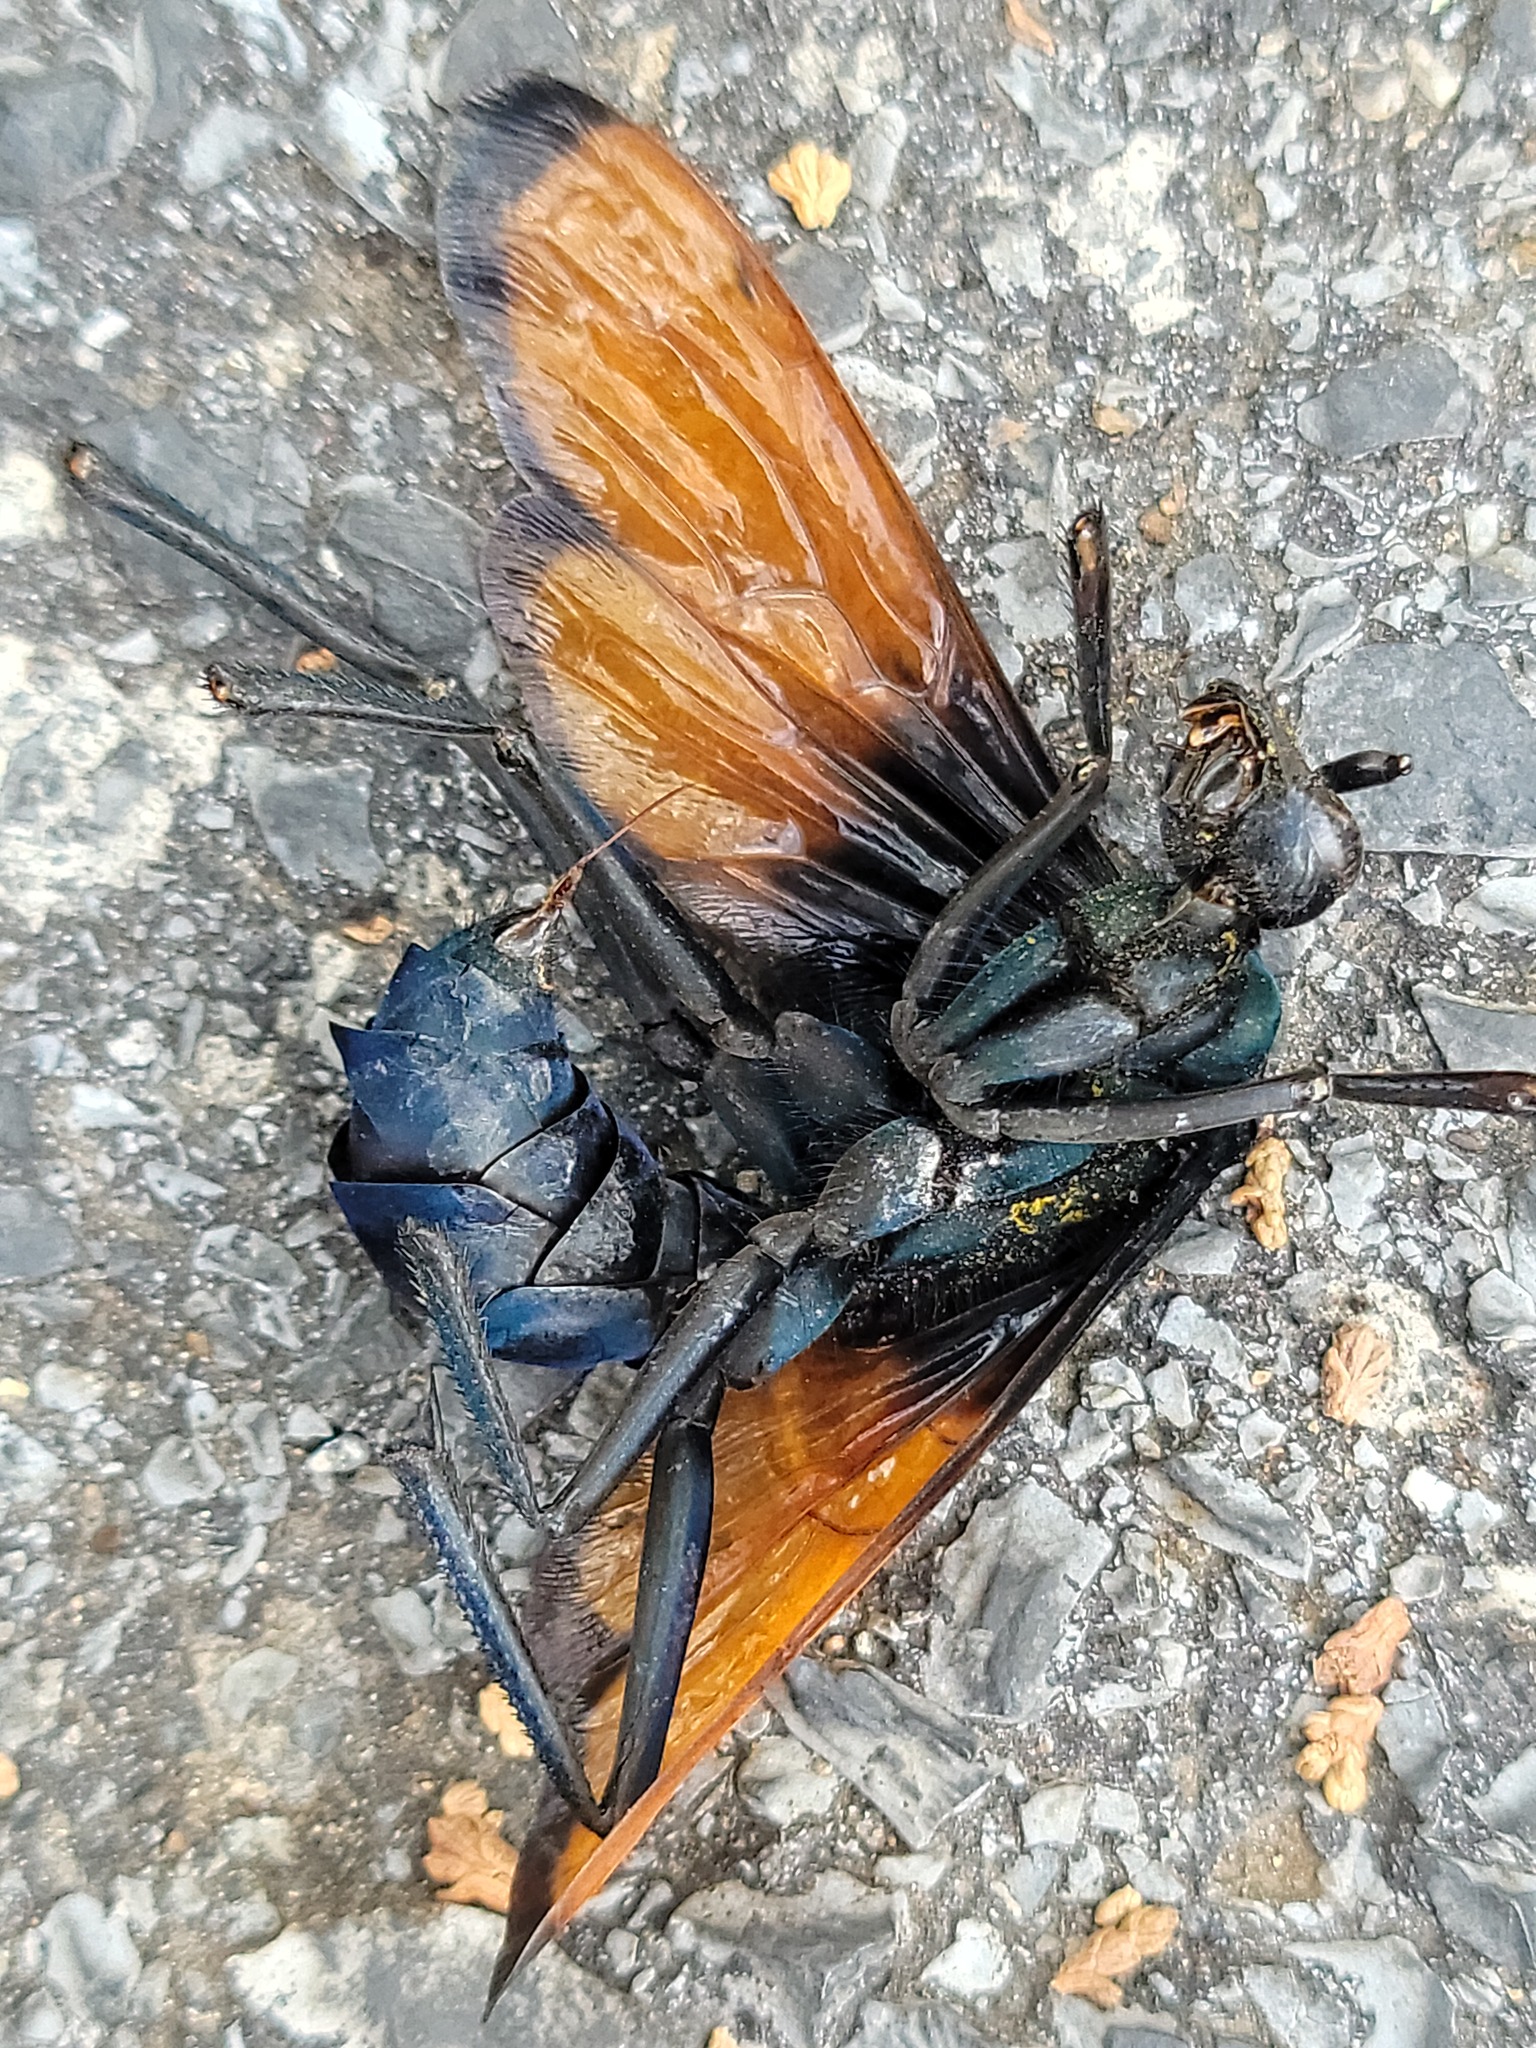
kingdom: Animalia
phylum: Arthropoda
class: Insecta
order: Hymenoptera
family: Pompilidae
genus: Pepsis
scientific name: Pepsis mildei
